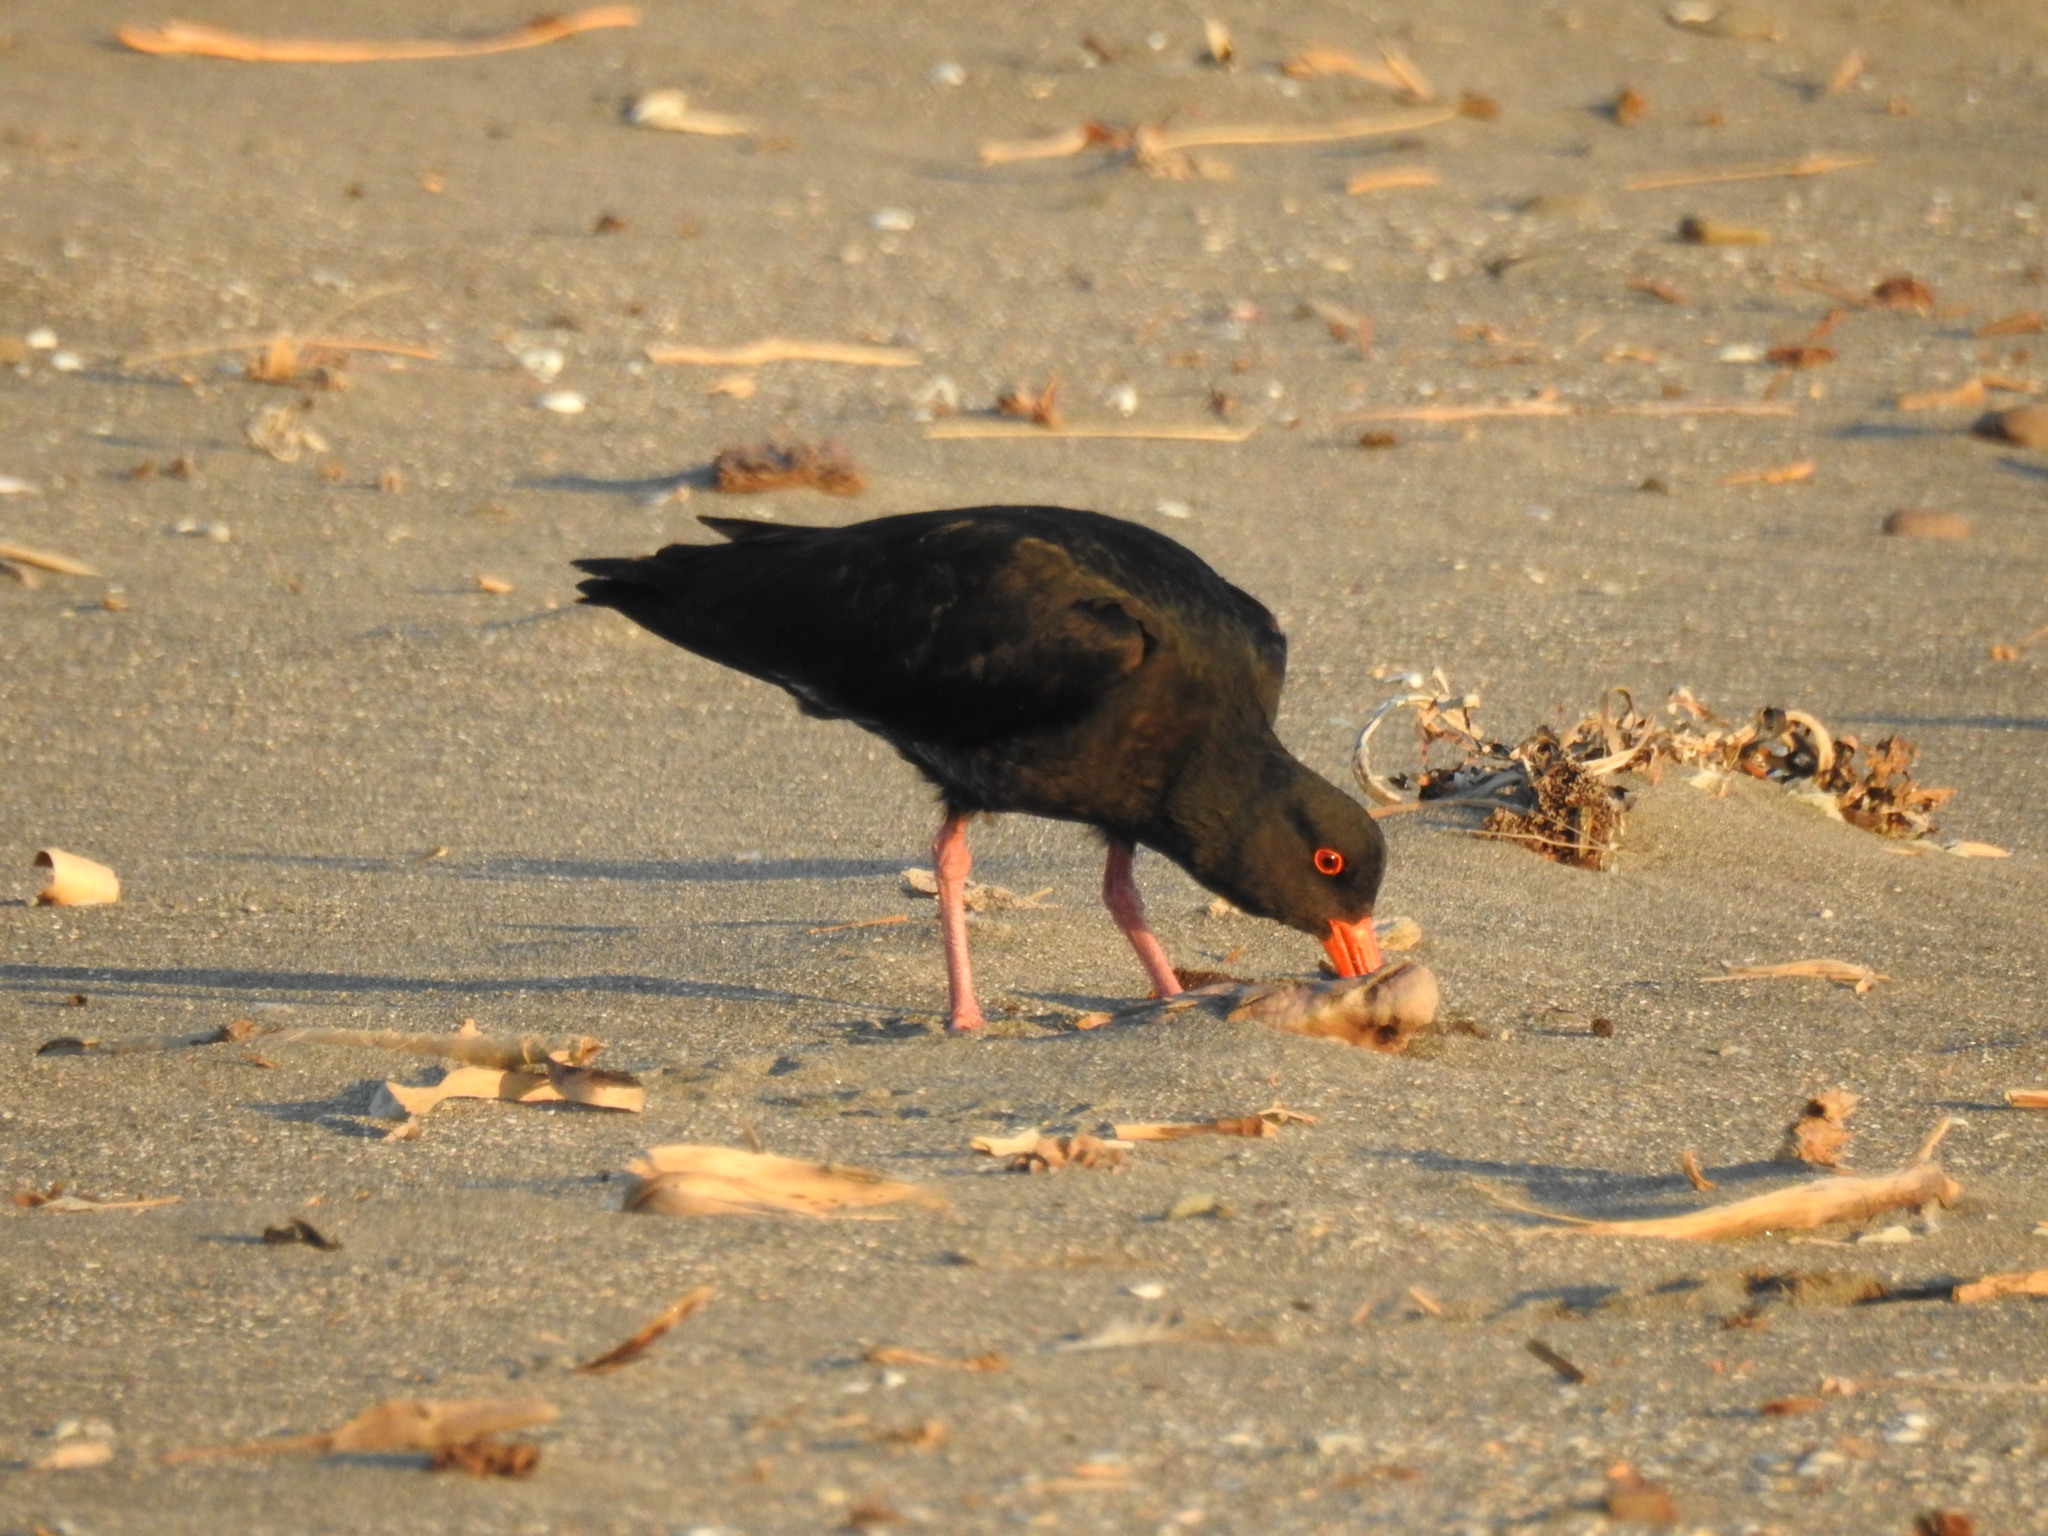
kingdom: Animalia
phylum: Chordata
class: Aves
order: Charadriiformes
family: Haematopodidae
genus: Haematopus
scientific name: Haematopus unicolor
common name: Variable oystercatcher
